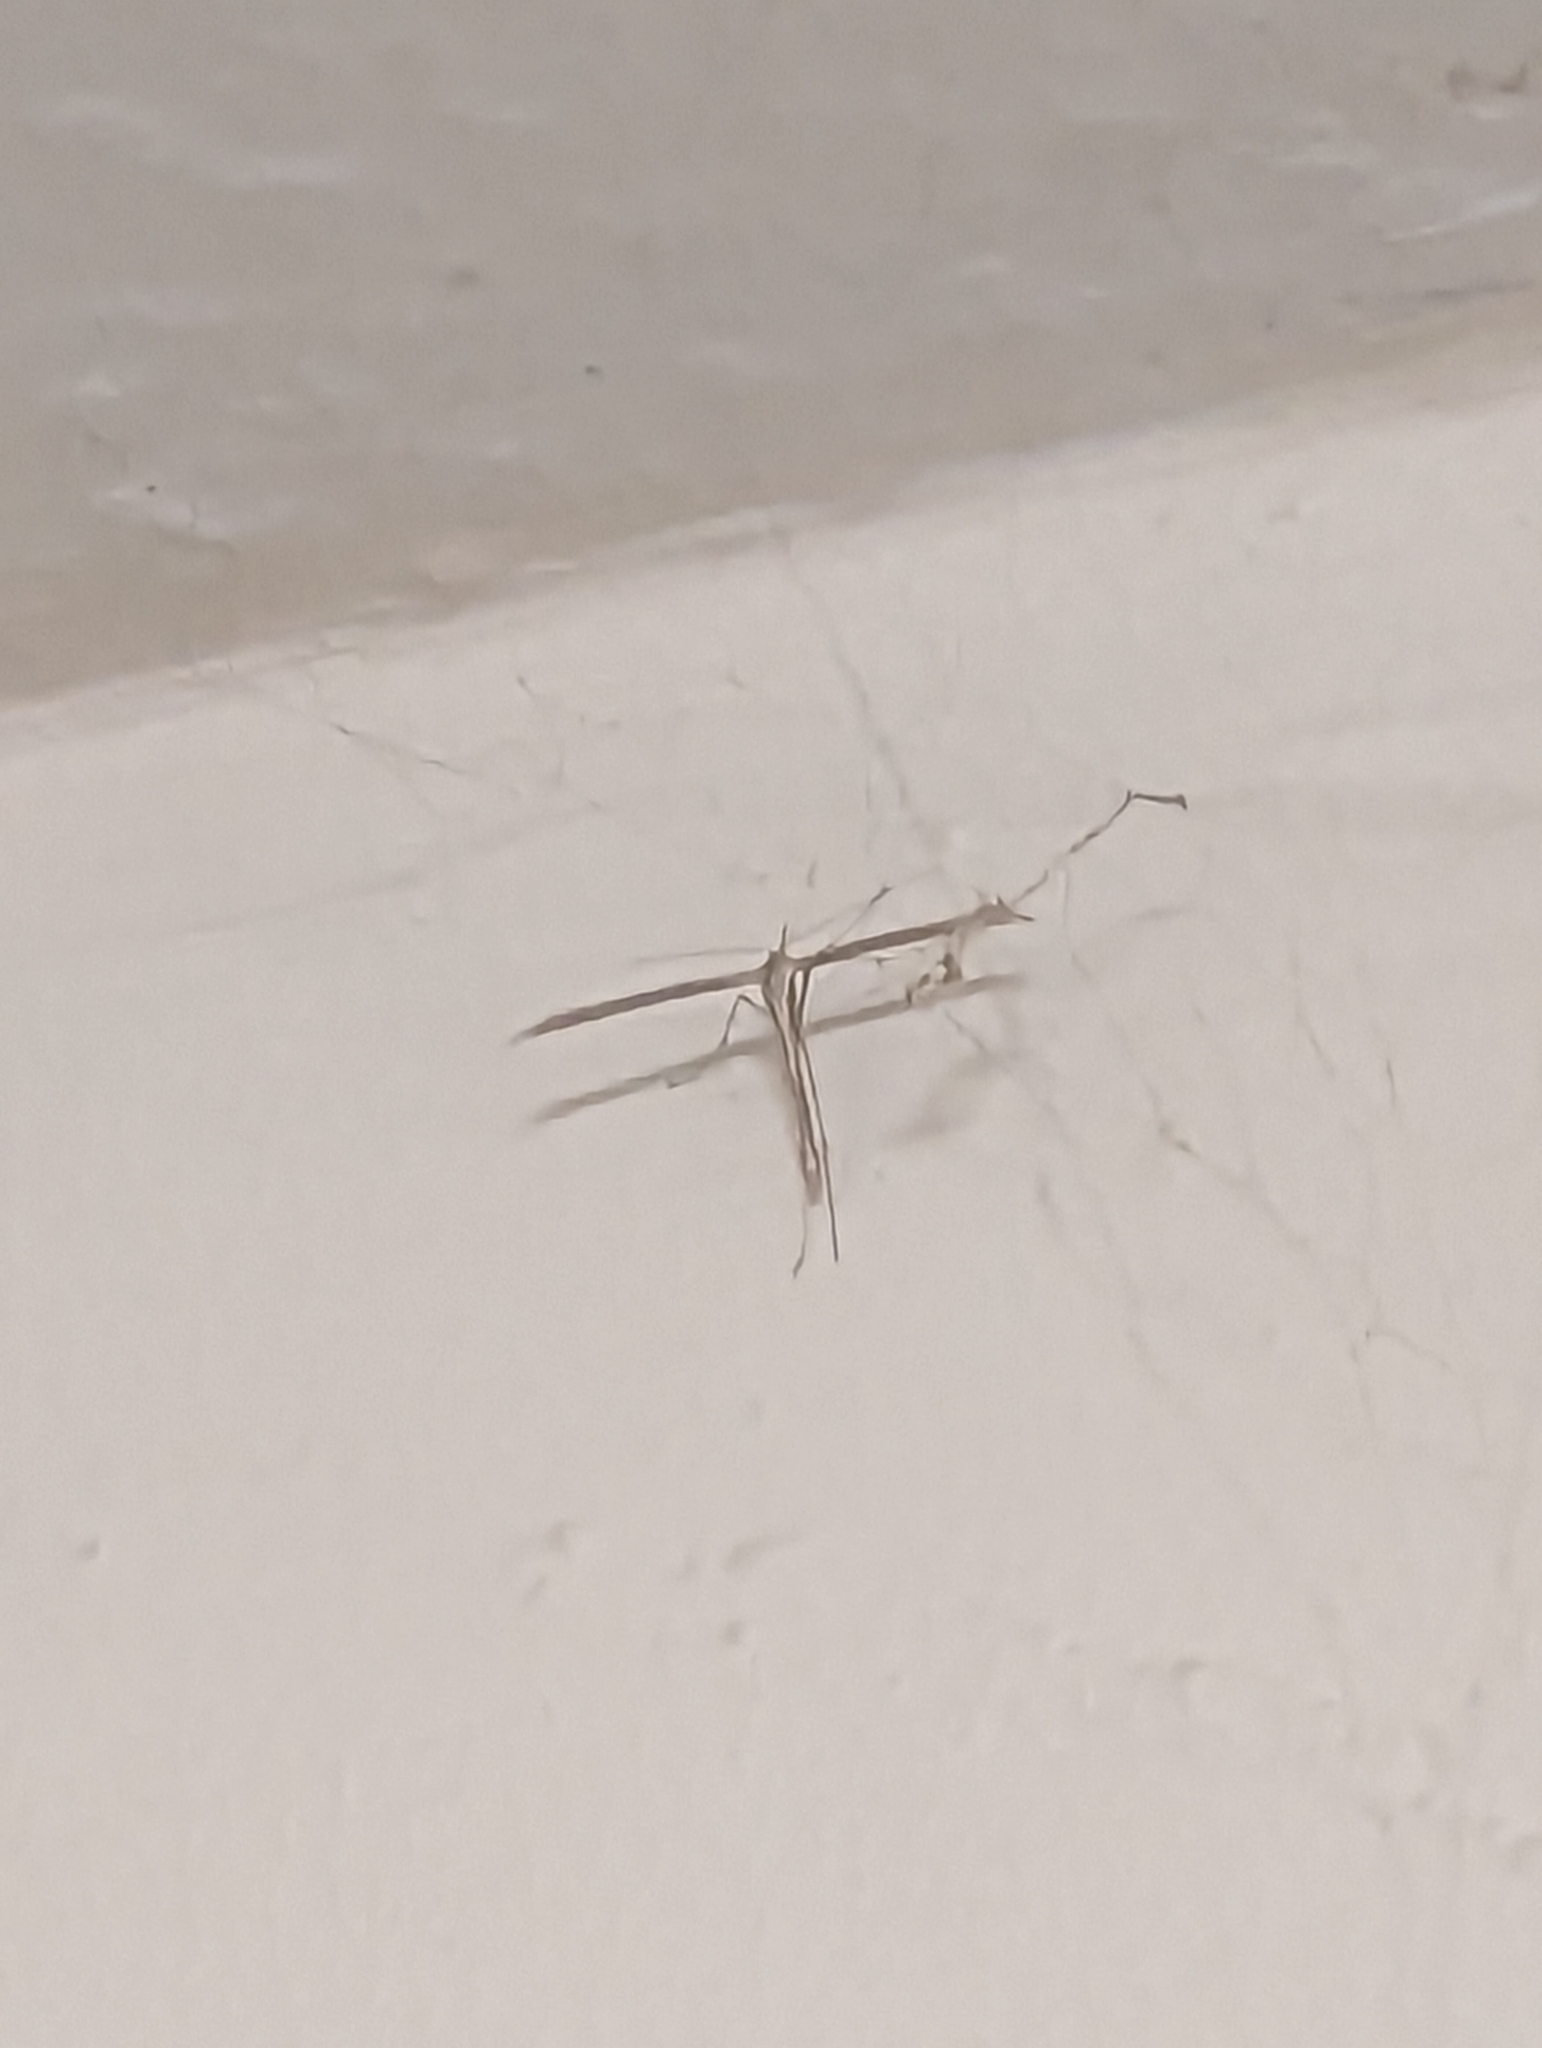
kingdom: Animalia
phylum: Arthropoda
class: Insecta
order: Lepidoptera
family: Pterophoridae
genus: Emmelina
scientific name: Emmelina monodactyla
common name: Common plume
